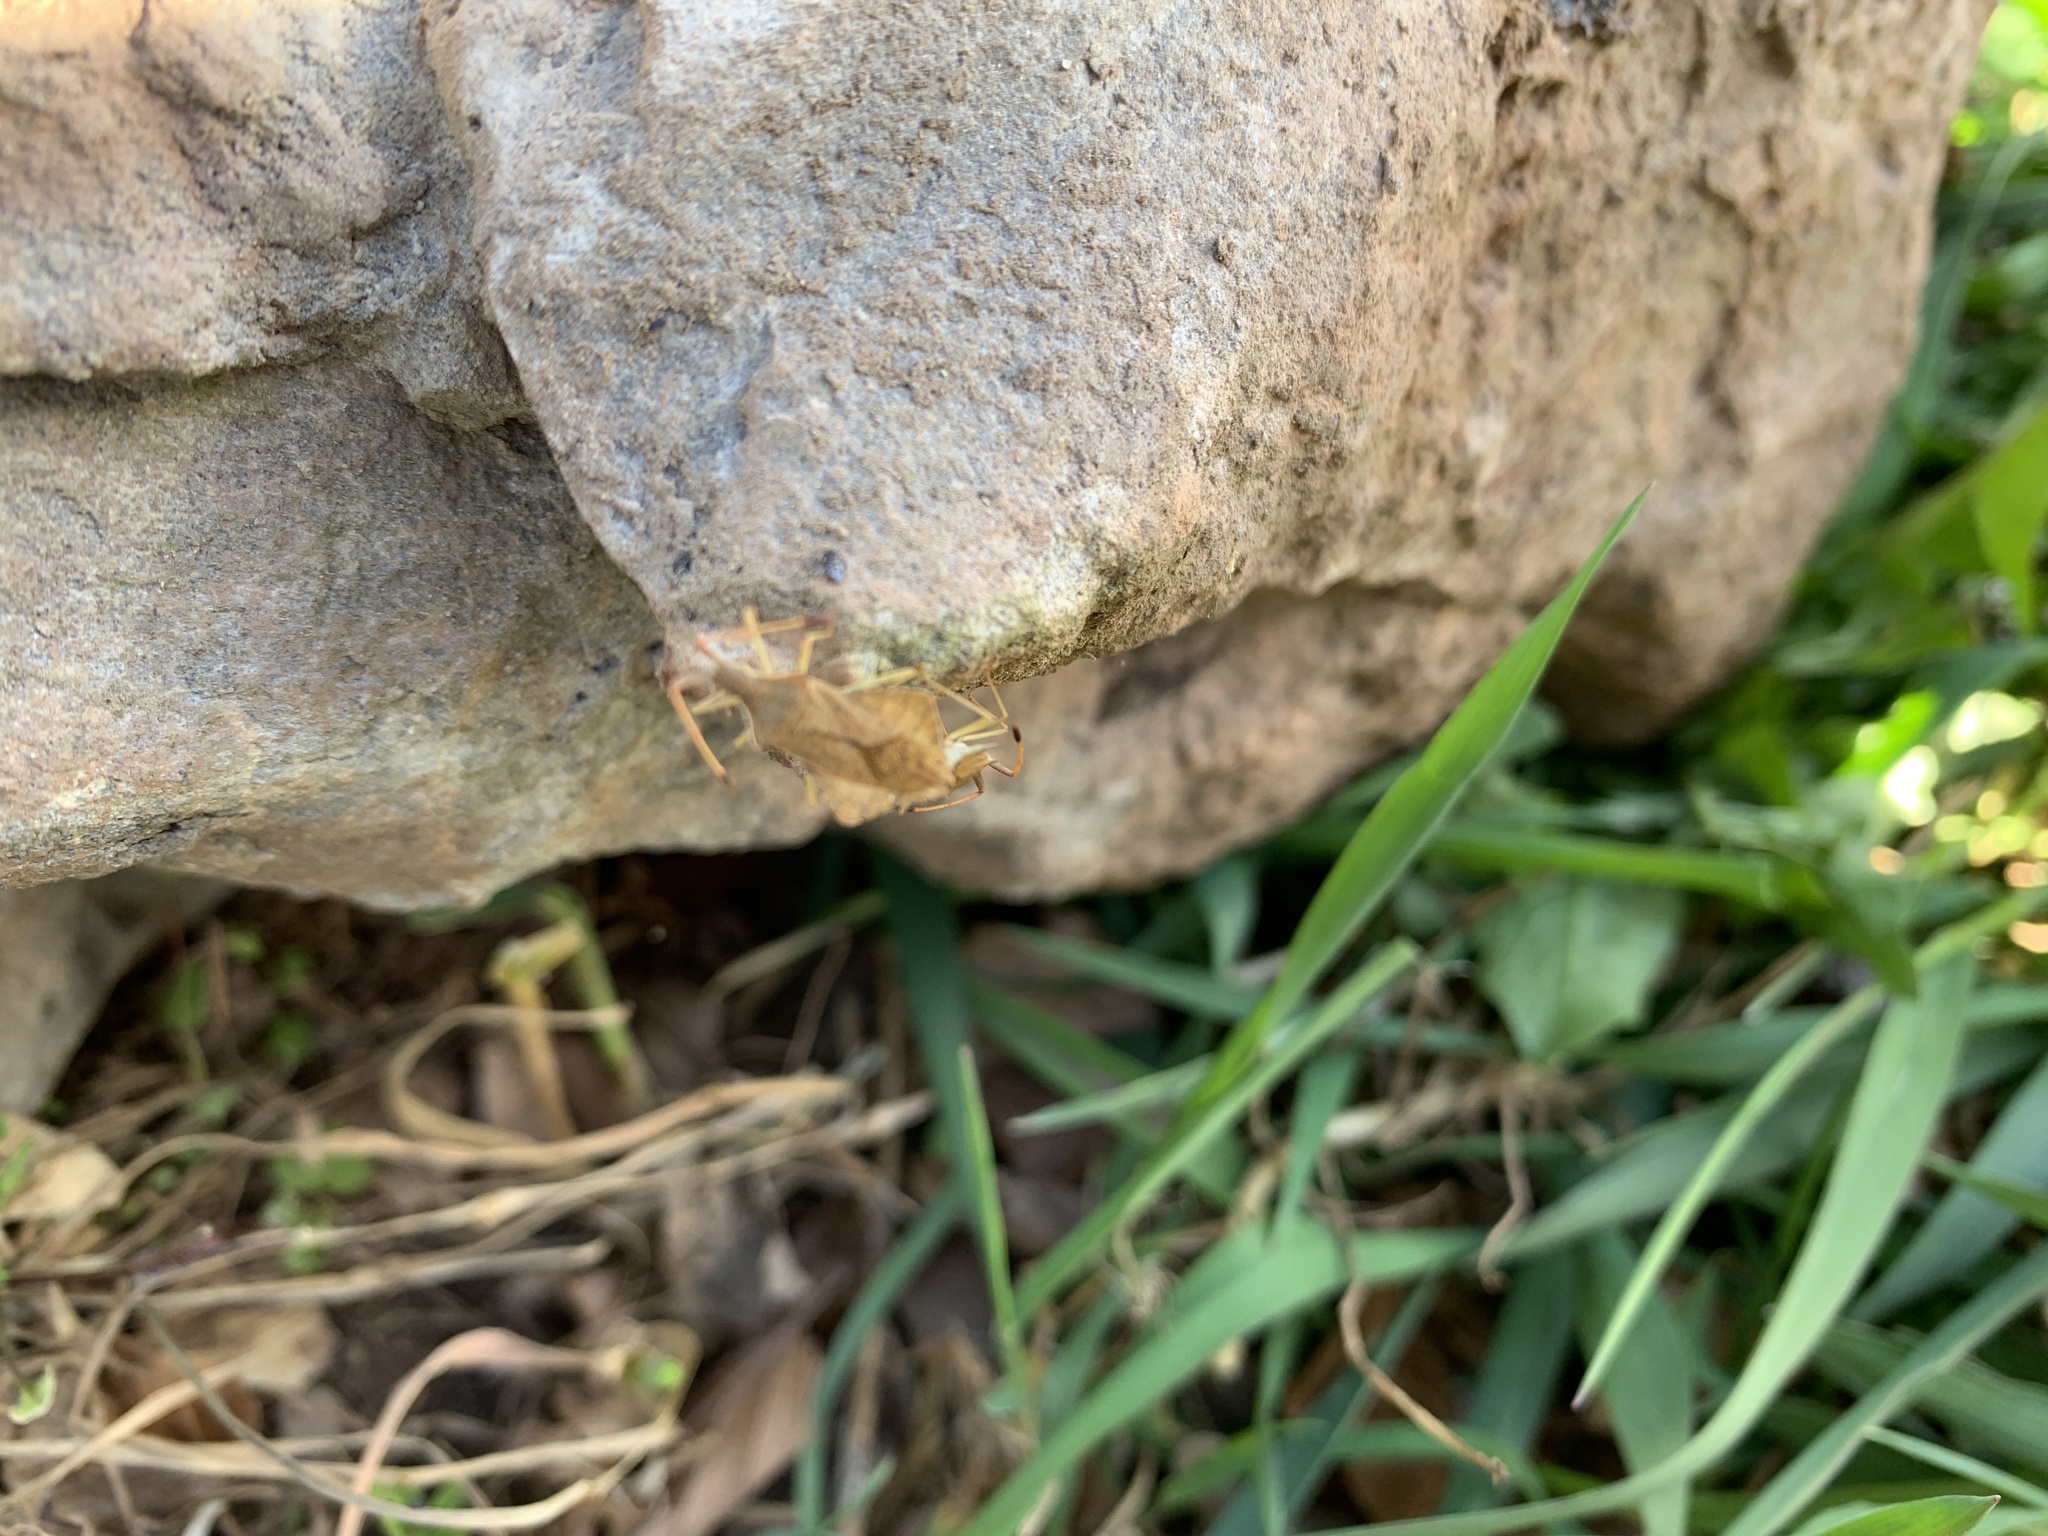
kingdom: Animalia
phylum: Arthropoda
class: Insecta
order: Hemiptera
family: Coreidae
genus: Syromastus
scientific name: Syromastus rhombeus
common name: Rhombic leatherbug
